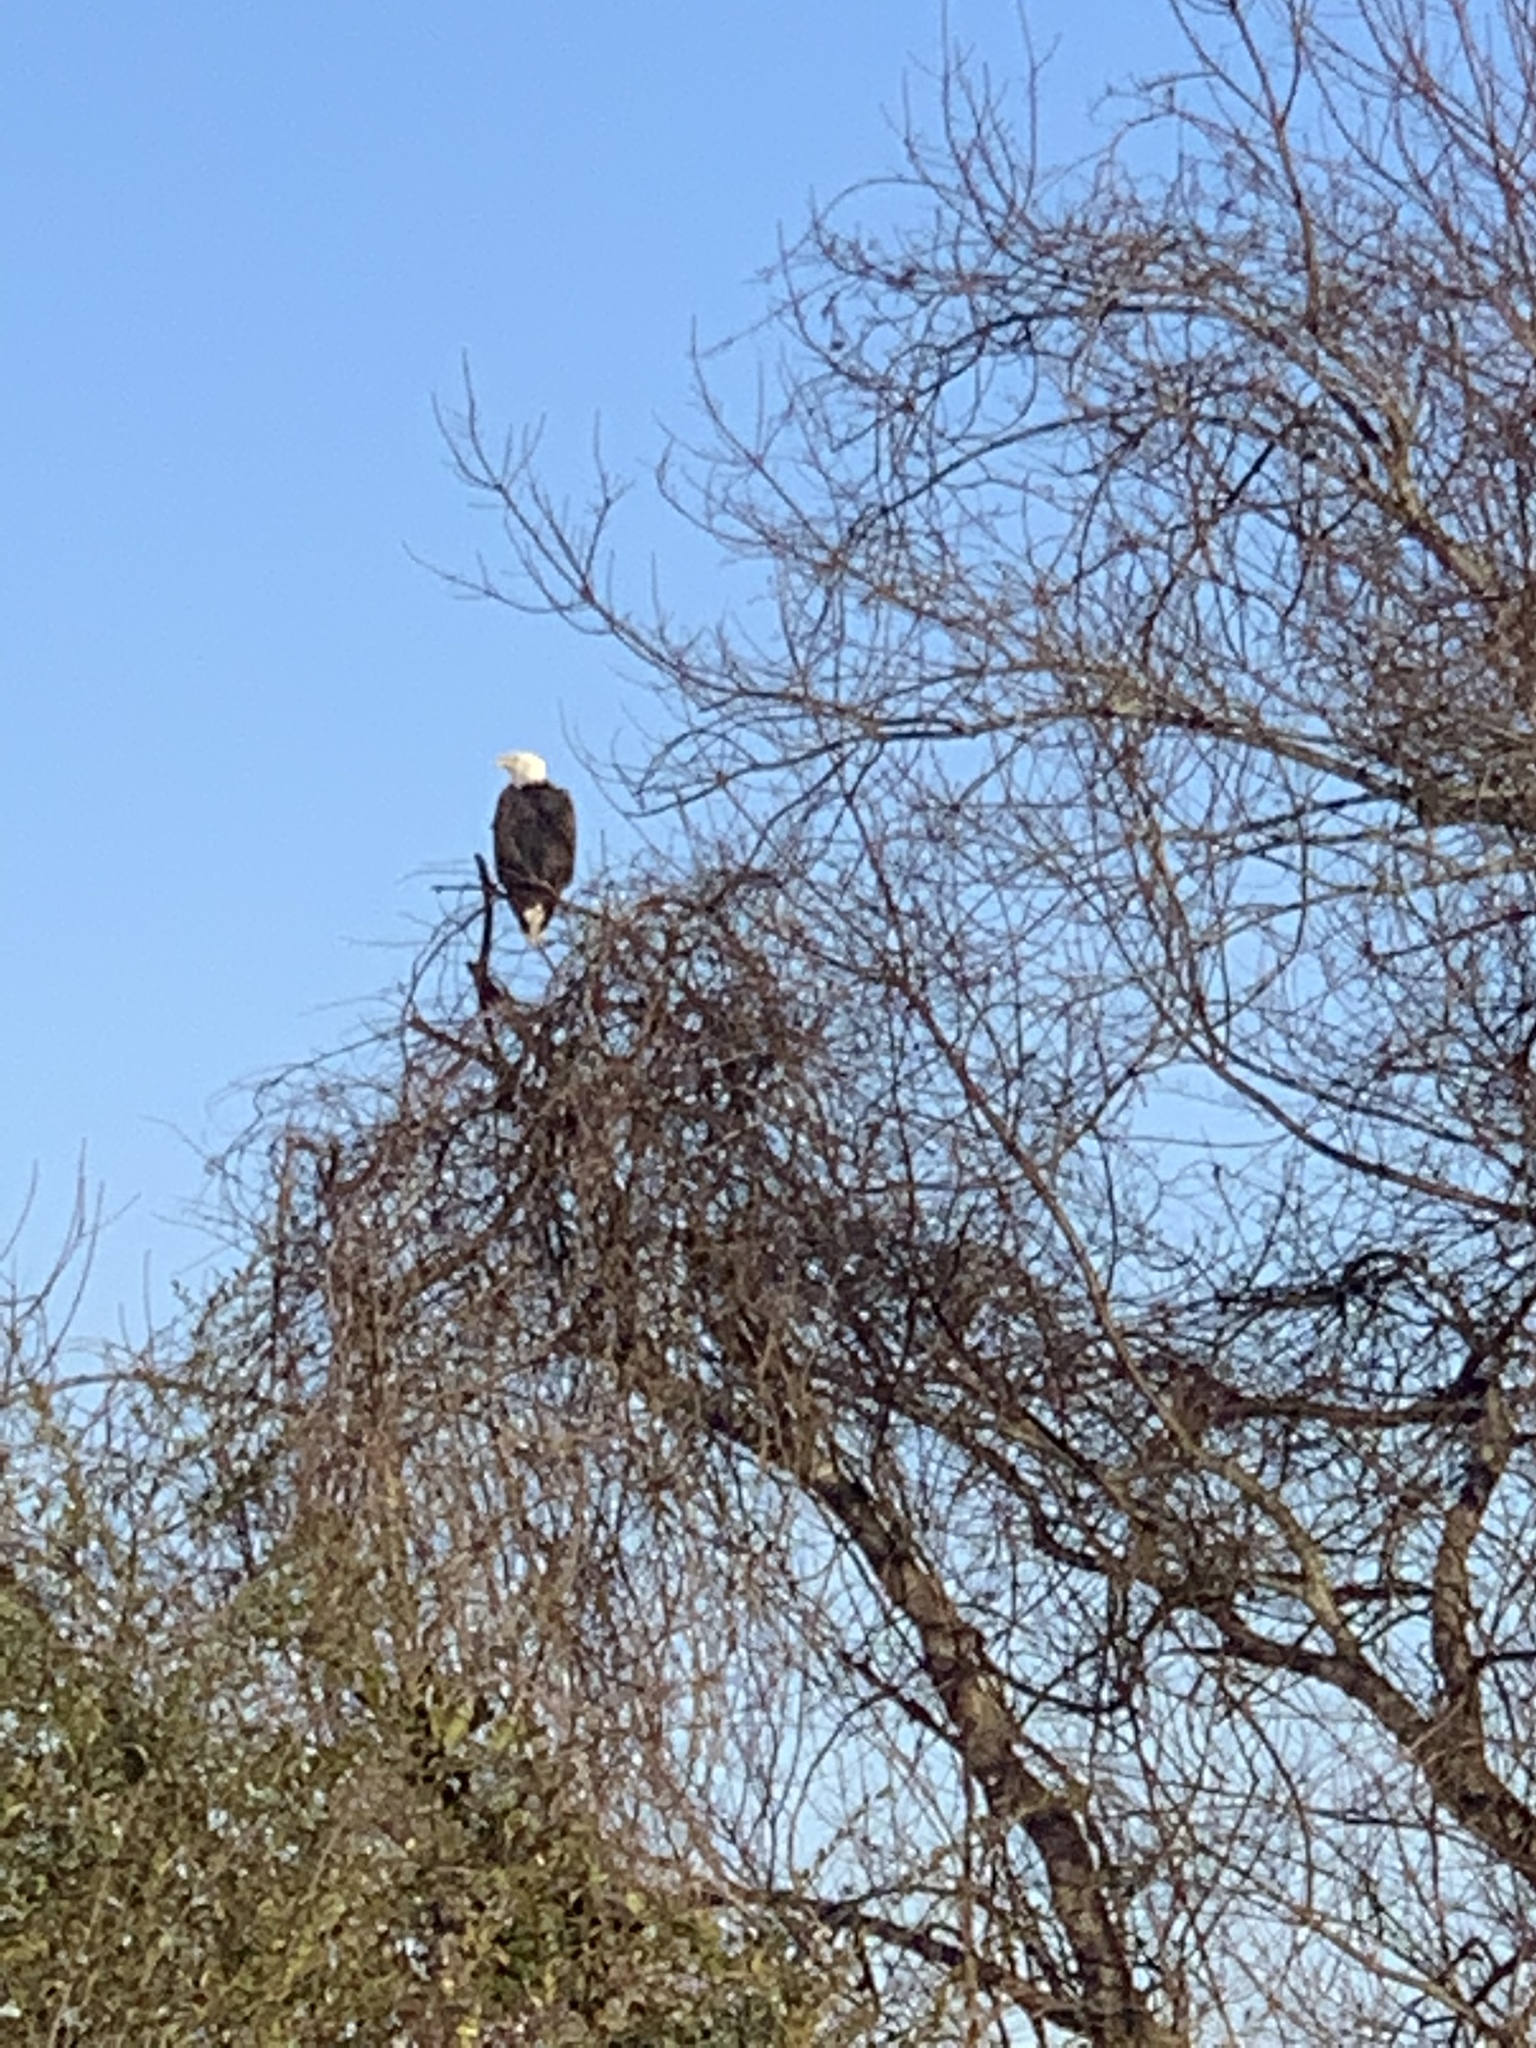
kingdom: Animalia
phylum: Chordata
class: Aves
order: Accipitriformes
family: Accipitridae
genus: Haliaeetus
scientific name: Haliaeetus leucocephalus
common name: Bald eagle
